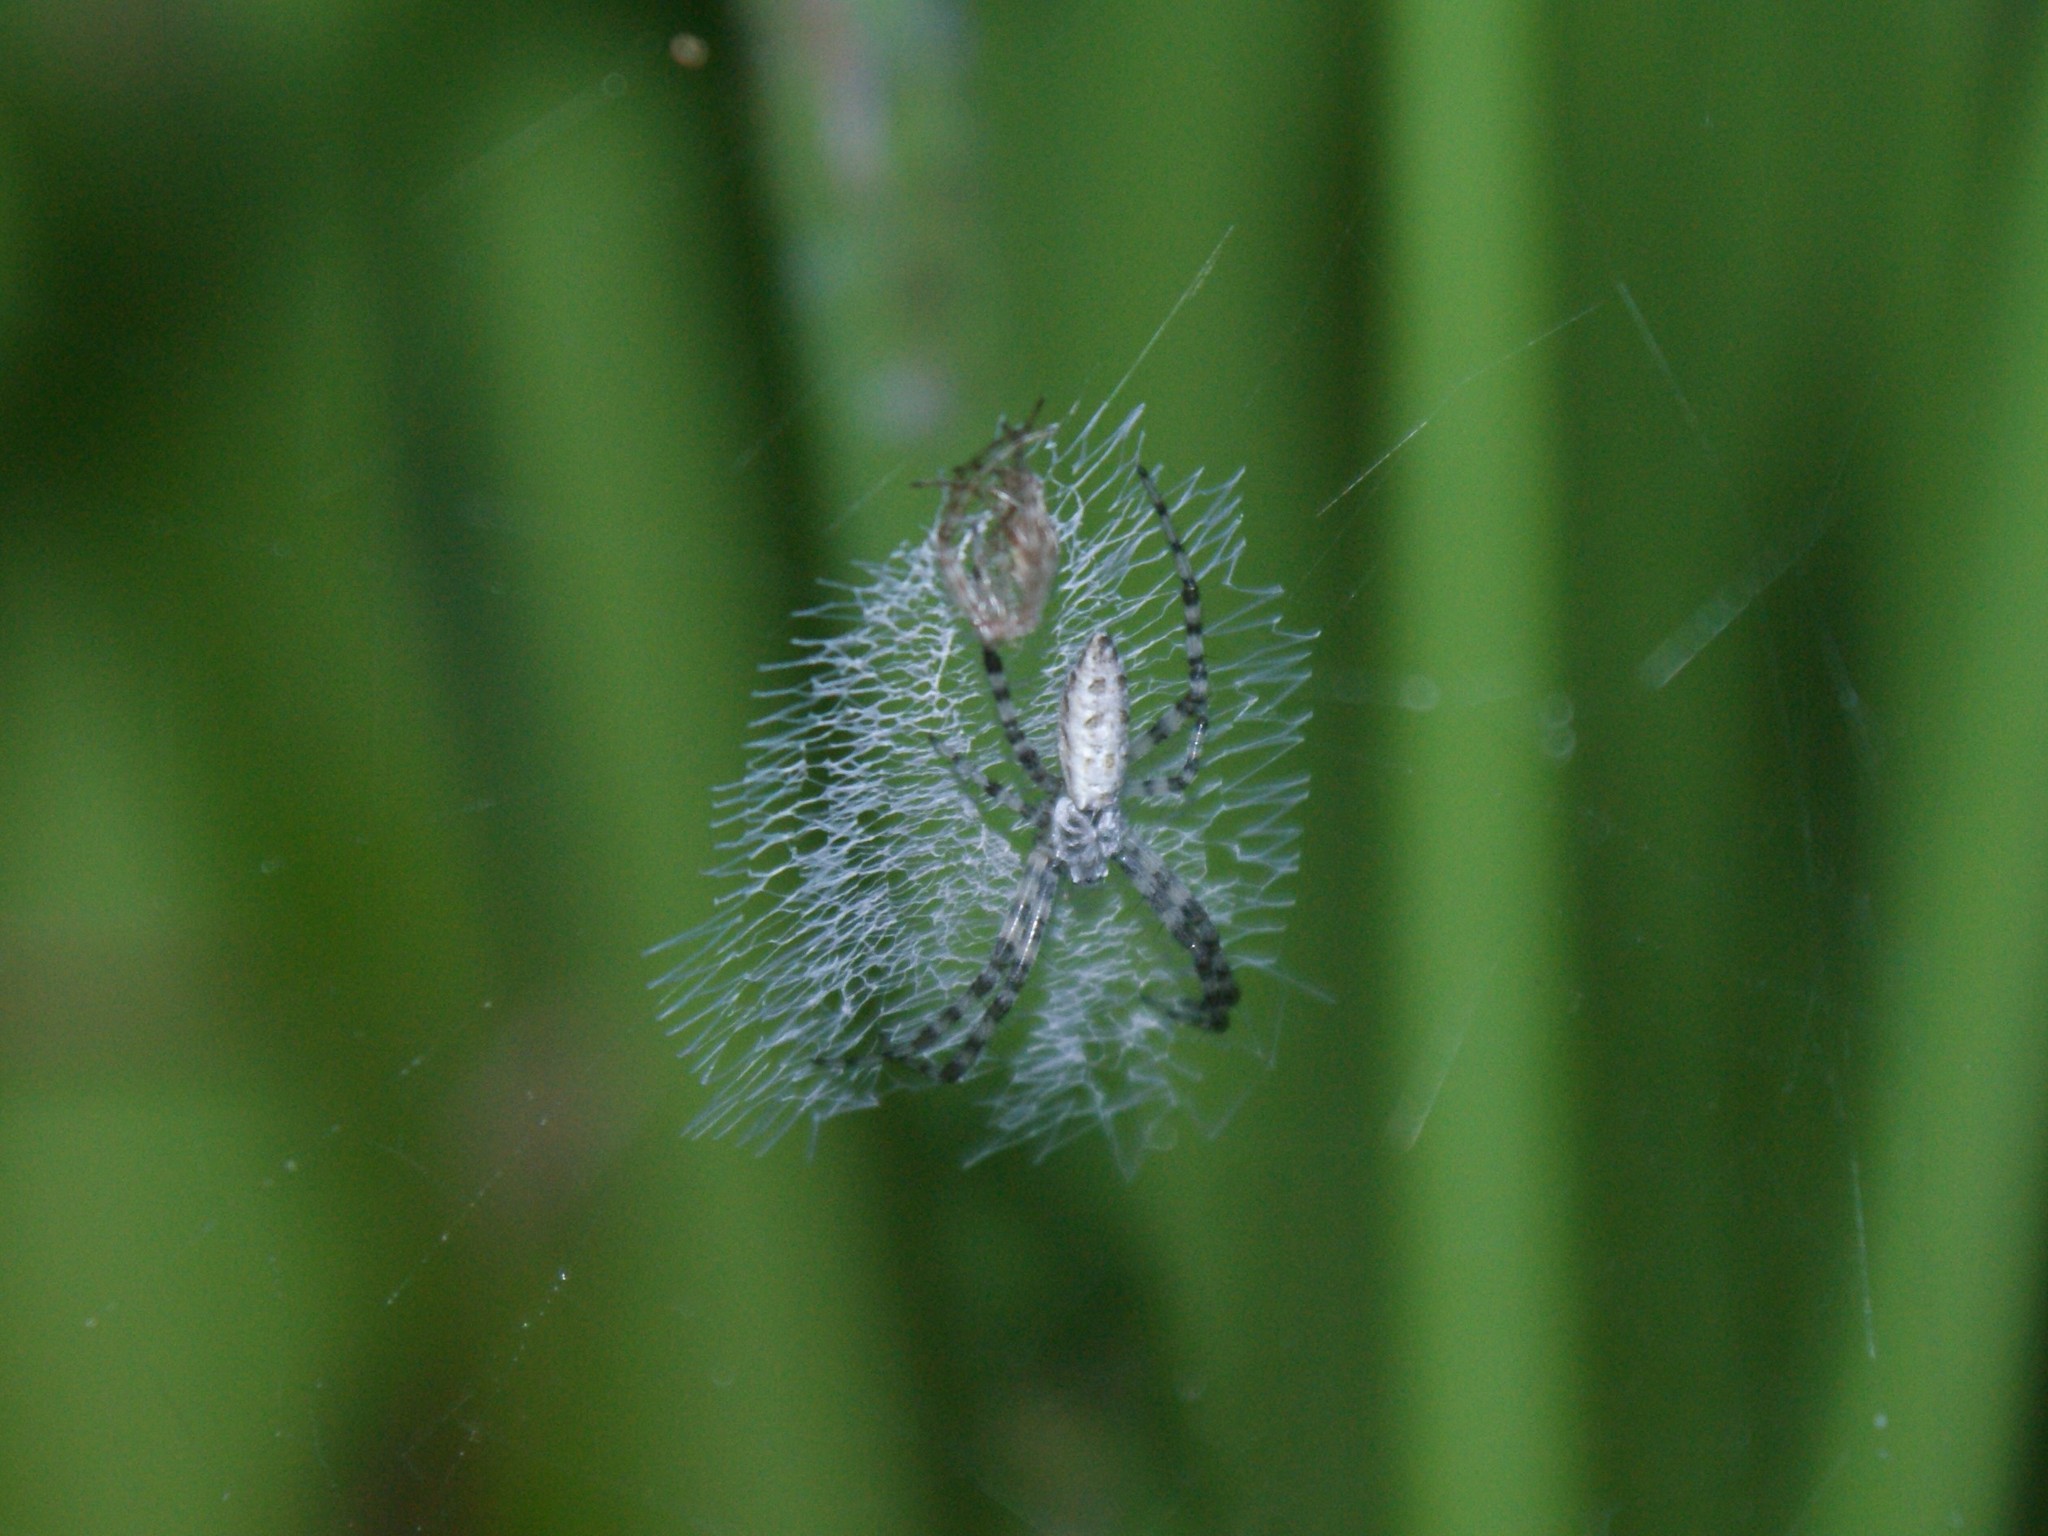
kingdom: Animalia
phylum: Arthropoda
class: Arachnida
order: Araneae
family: Araneidae
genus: Argiope
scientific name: Argiope aurantia
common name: Orb weavers
